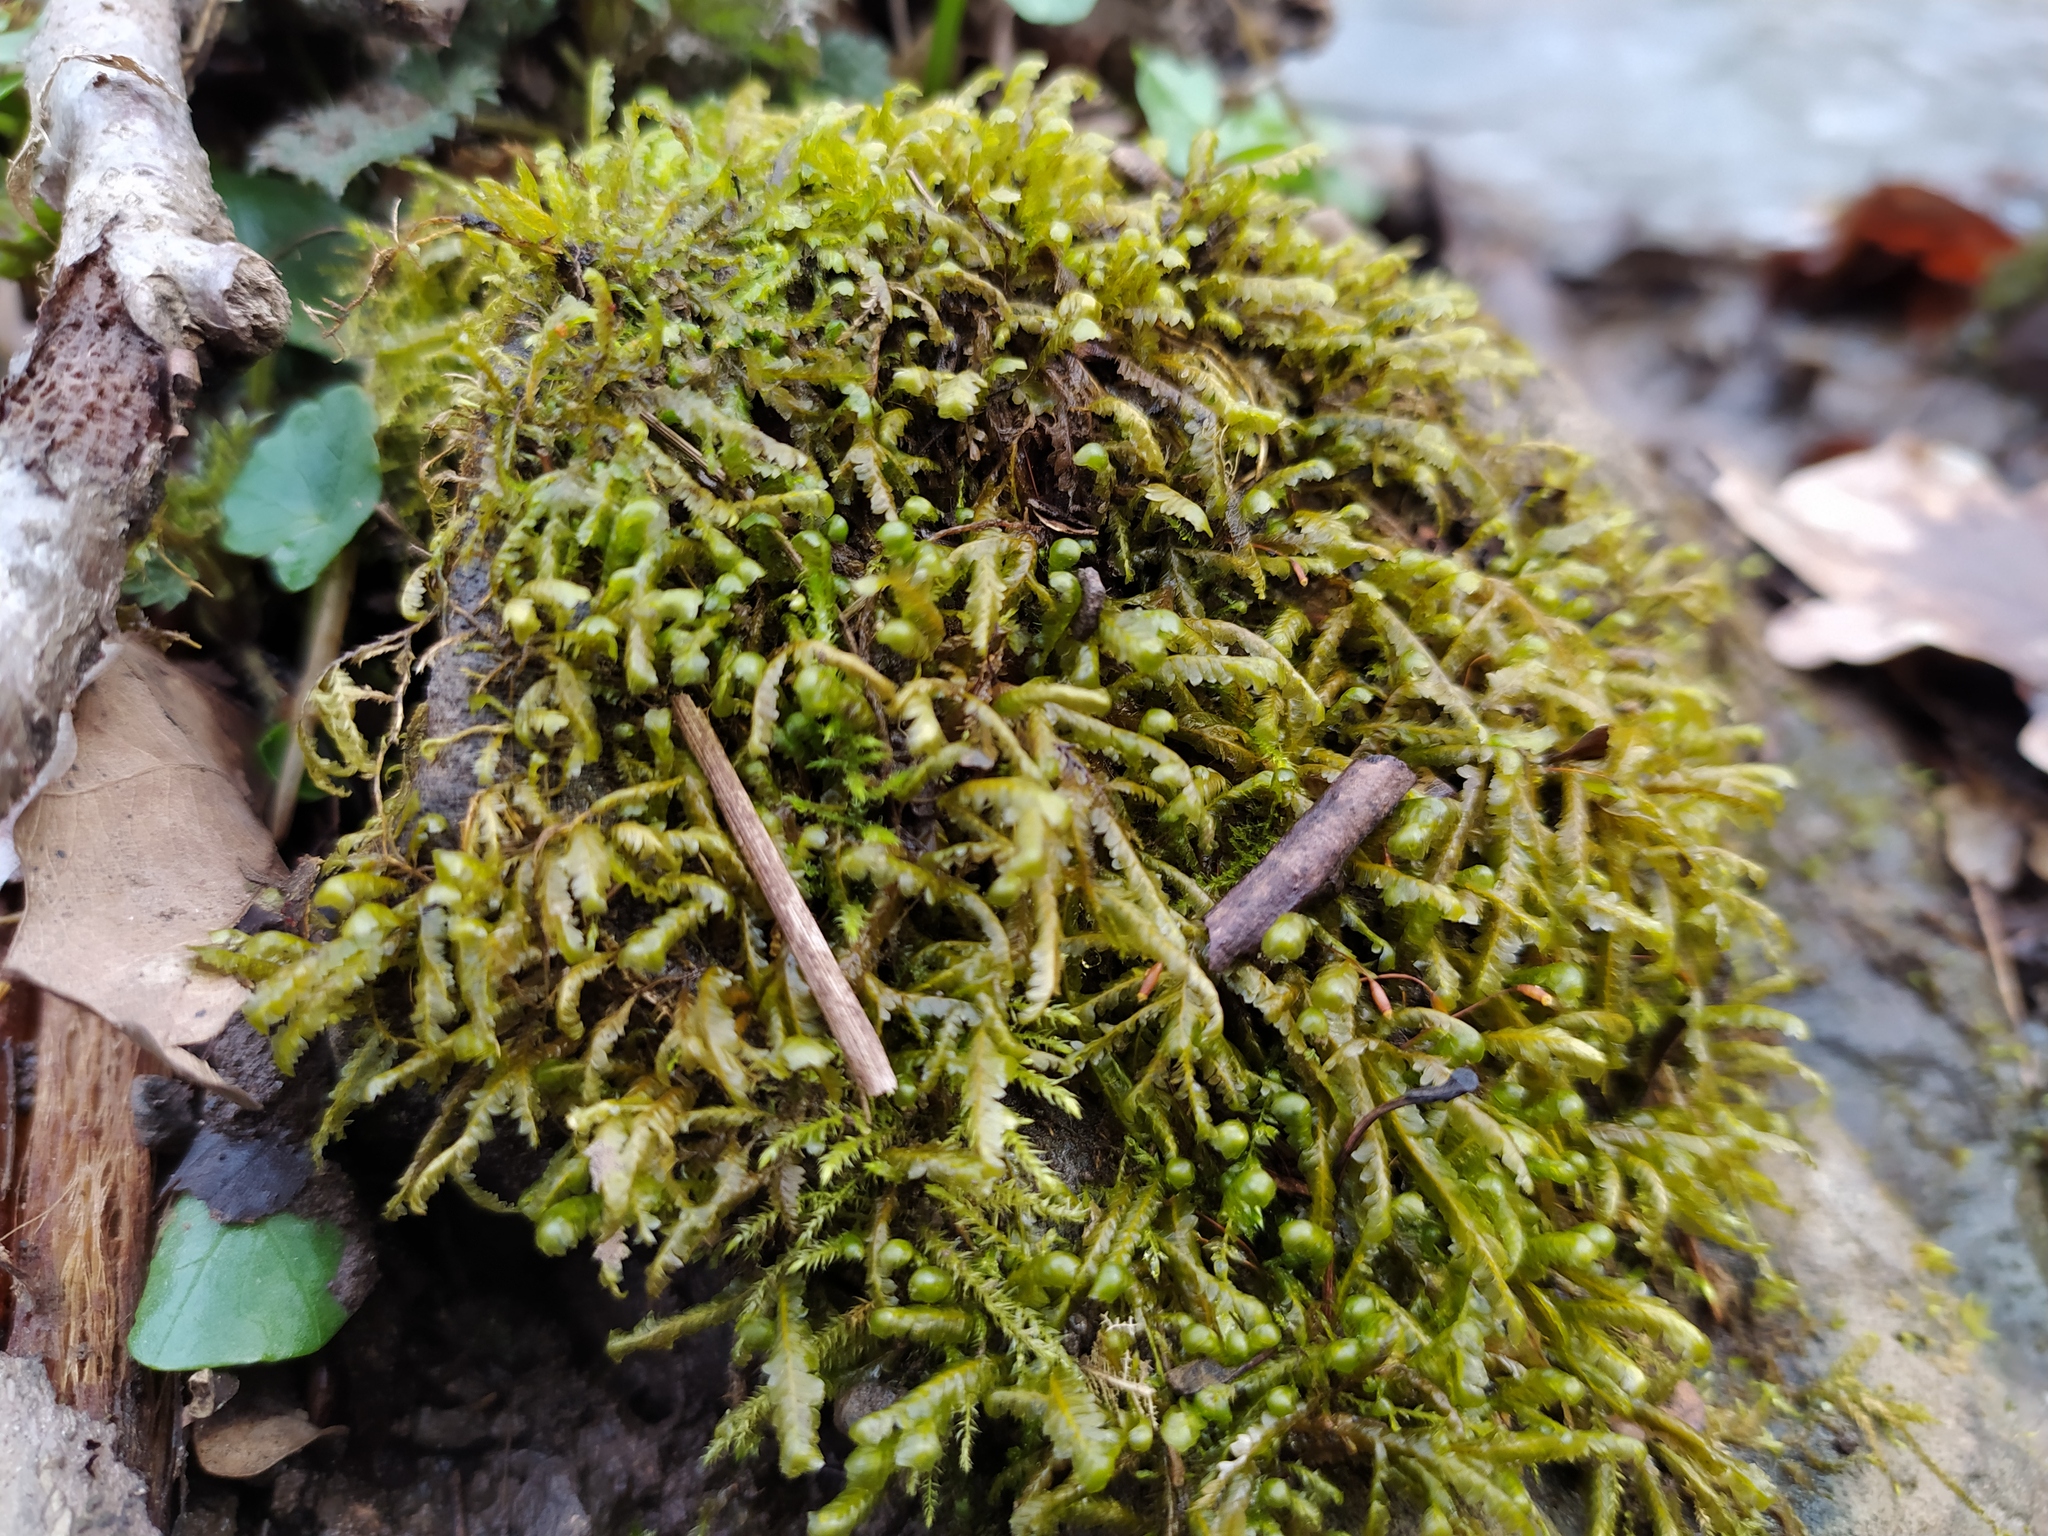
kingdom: Plantae
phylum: Bryophyta
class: Bryopsida
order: Hypnales
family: Neckeraceae
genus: Homalia
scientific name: Homalia trichomanoides
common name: Lime homalia moss
